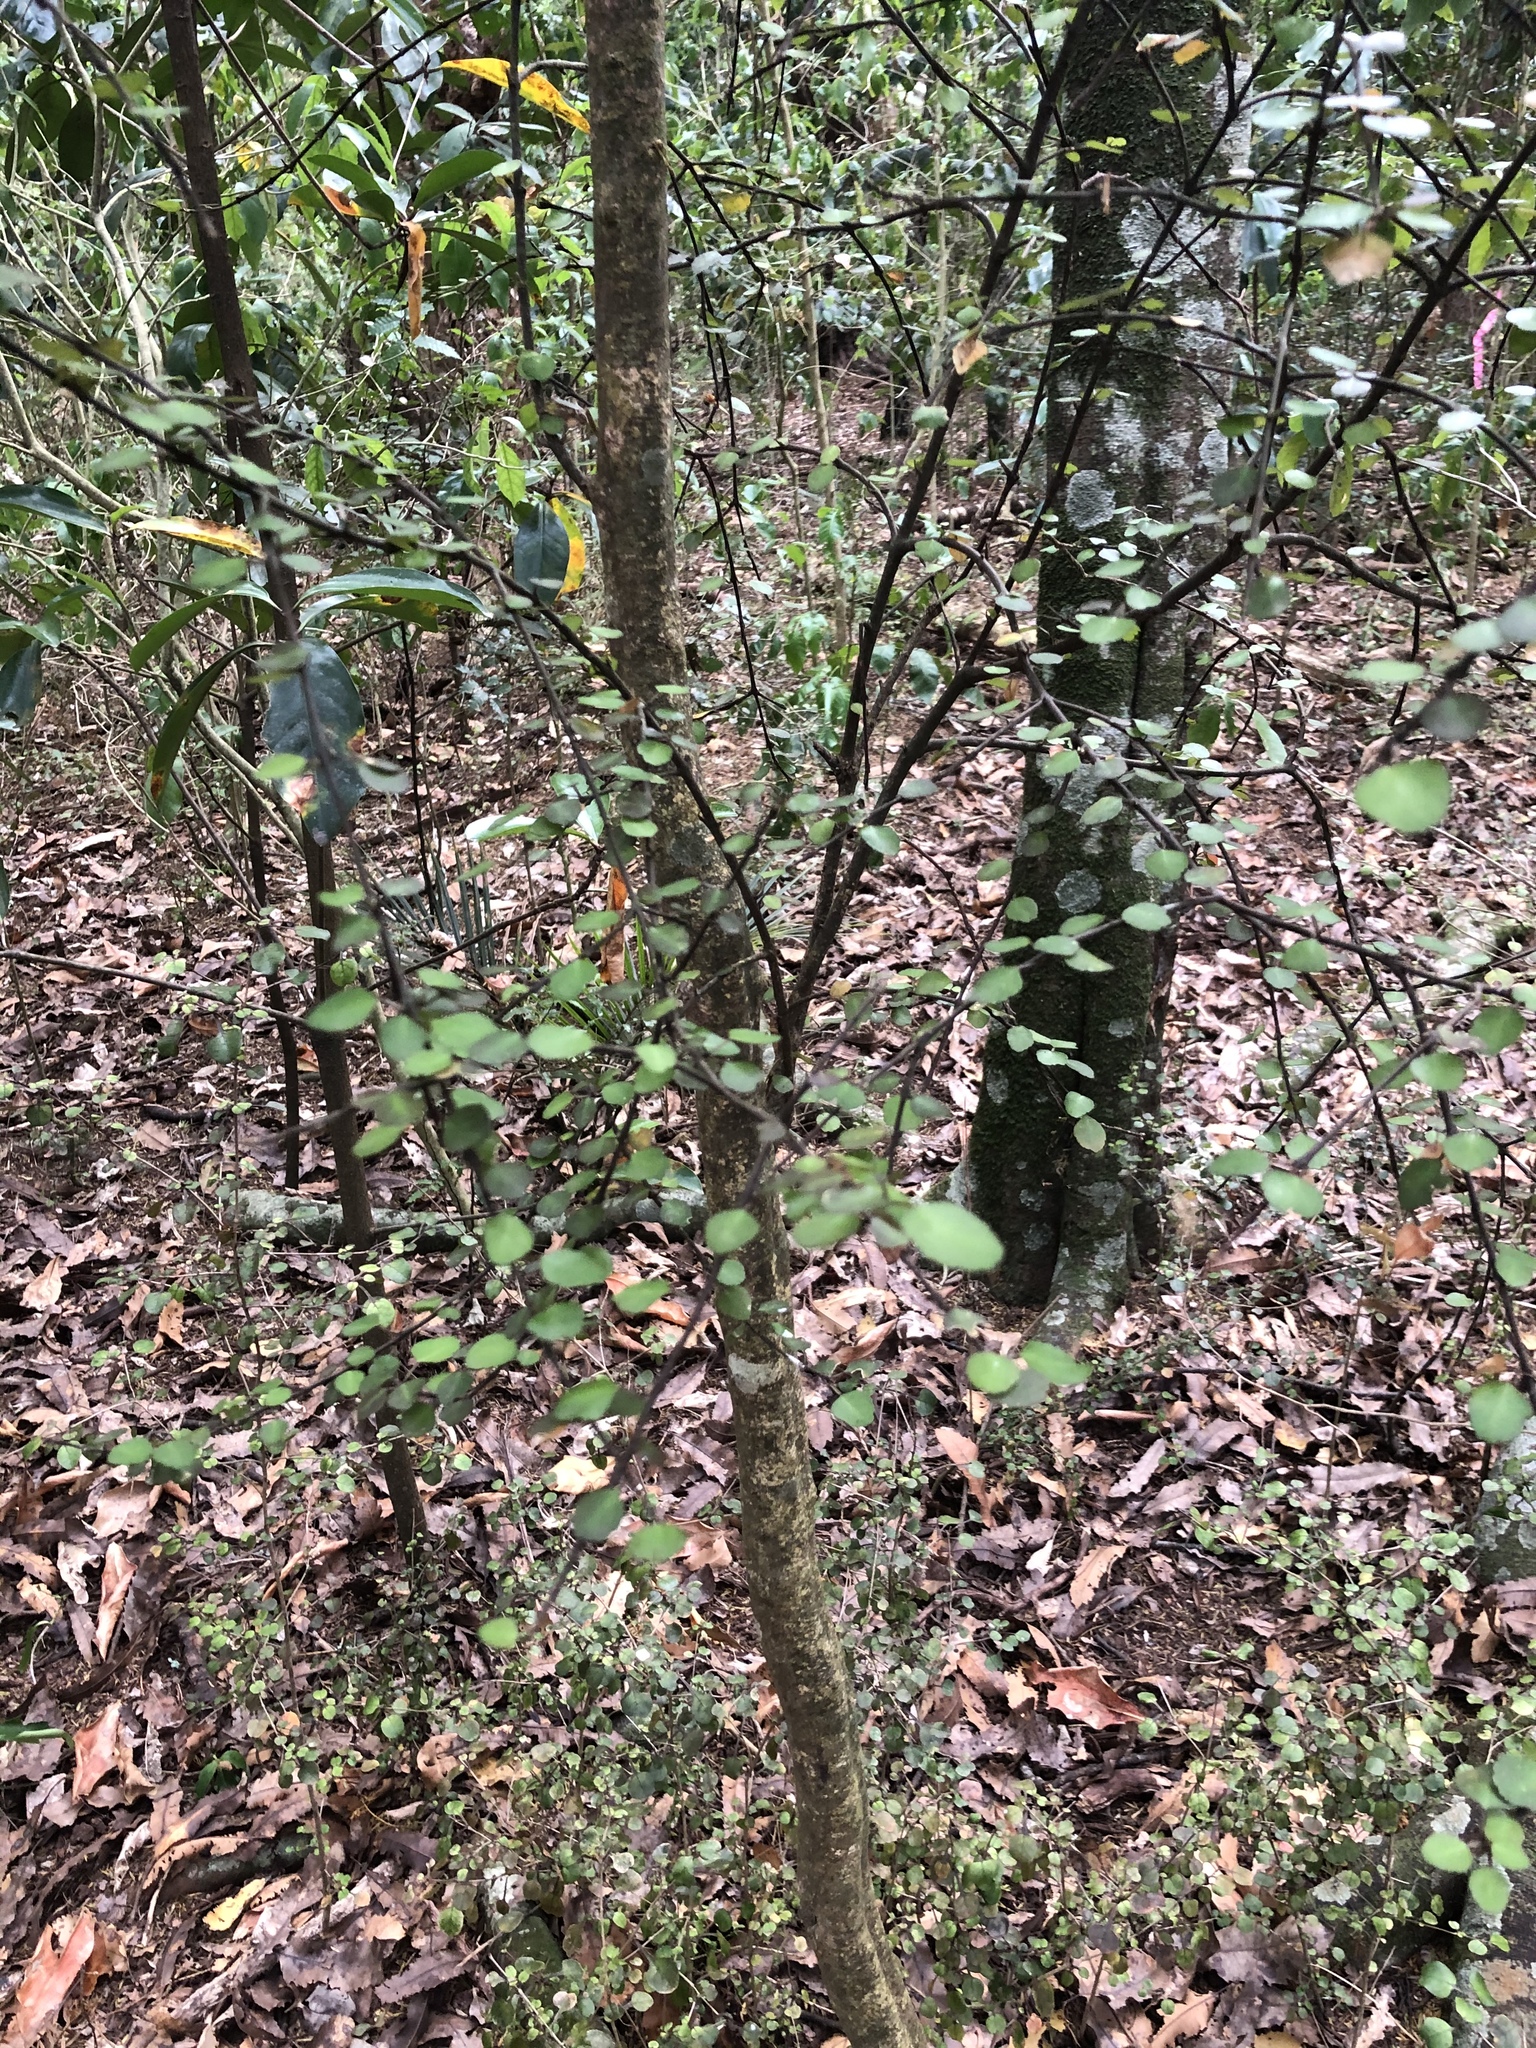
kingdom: Plantae
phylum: Tracheophyta
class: Magnoliopsida
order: Sapindales
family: Rutaceae
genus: Melicope
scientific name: Melicope simplex
